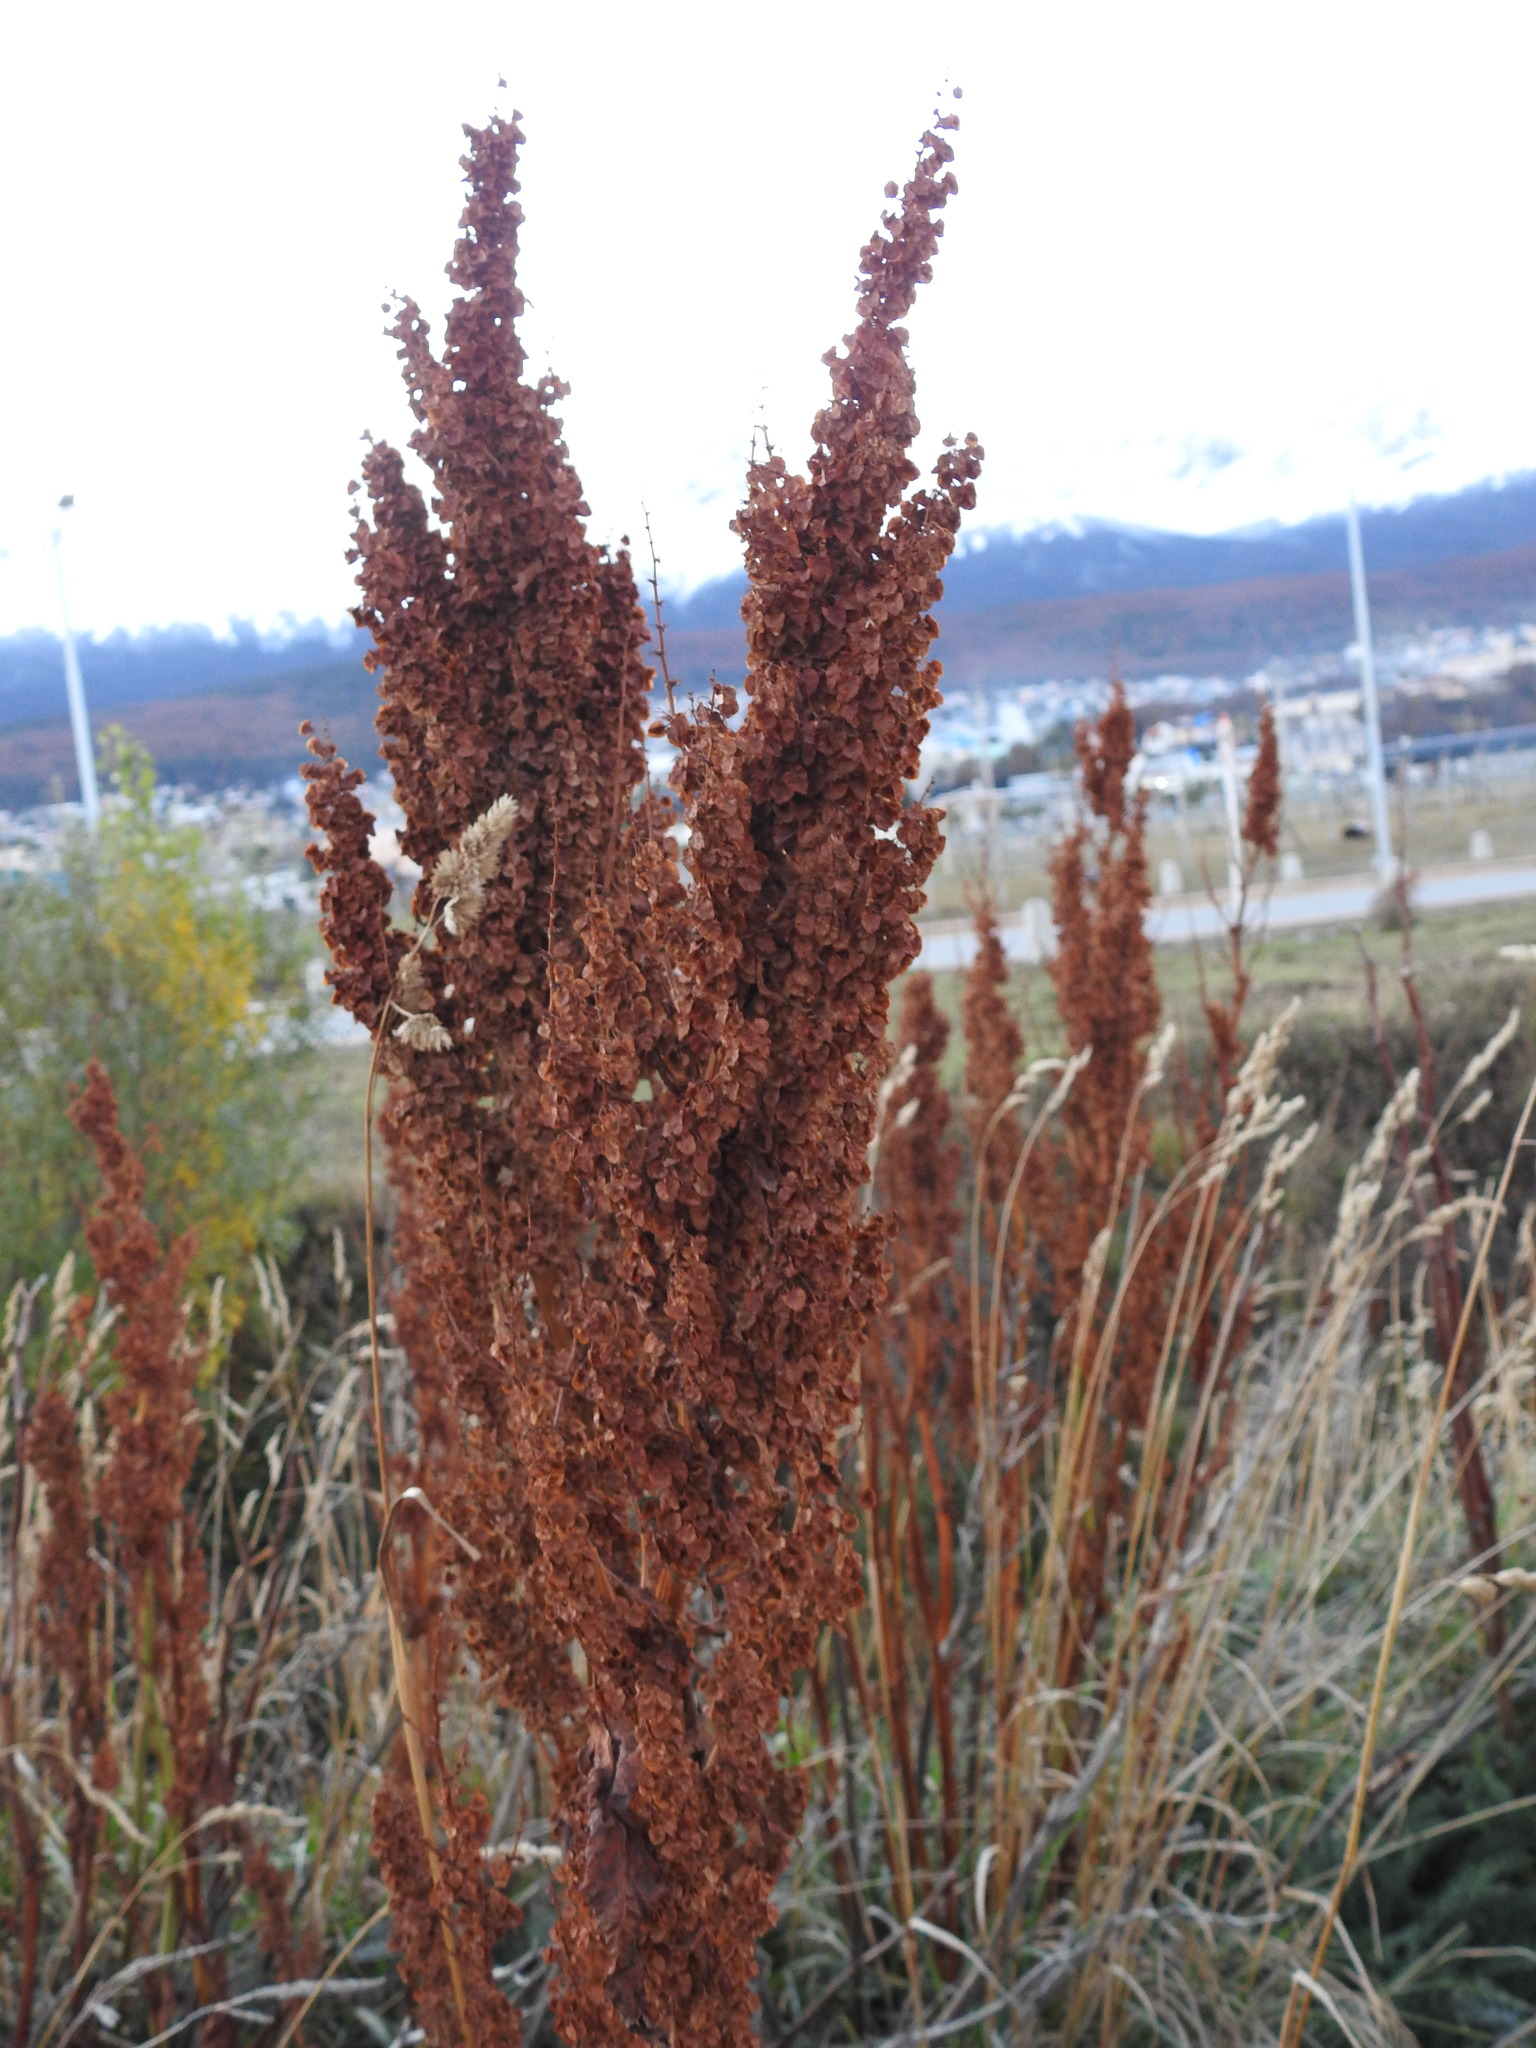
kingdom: Plantae
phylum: Tracheophyta
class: Magnoliopsida
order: Caryophyllales
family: Polygonaceae
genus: Rumex
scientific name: Rumex crispus
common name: Curled dock
